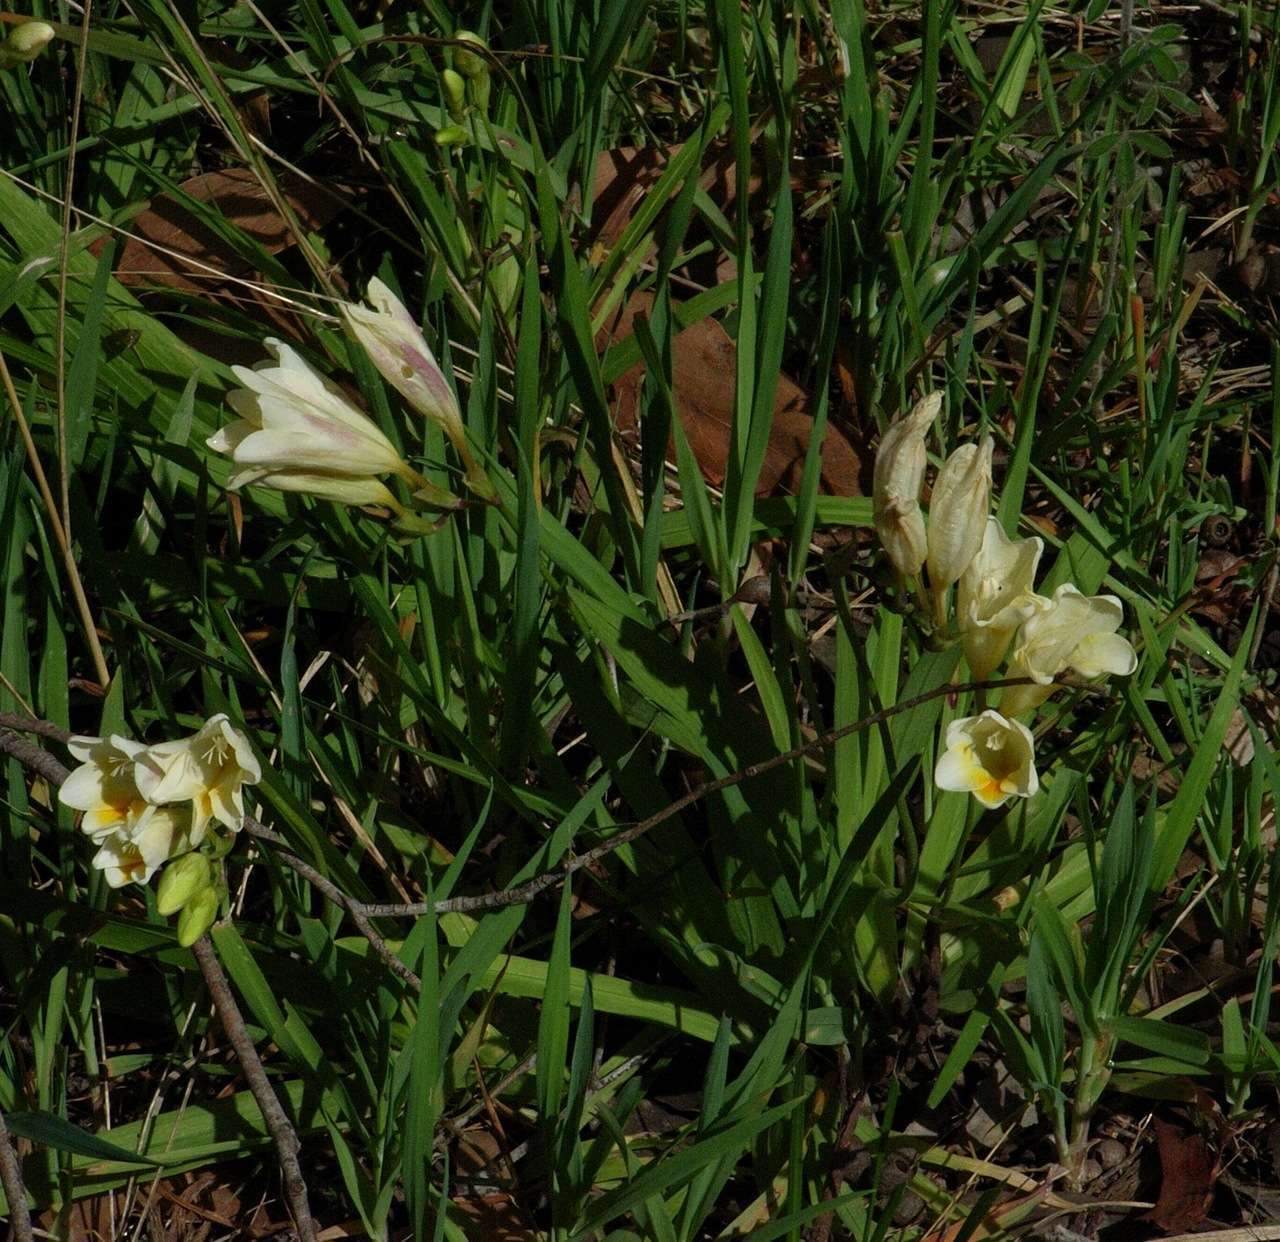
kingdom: Plantae
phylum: Tracheophyta
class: Liliopsida
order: Asparagales
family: Iridaceae
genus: Freesia
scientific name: Freesia
